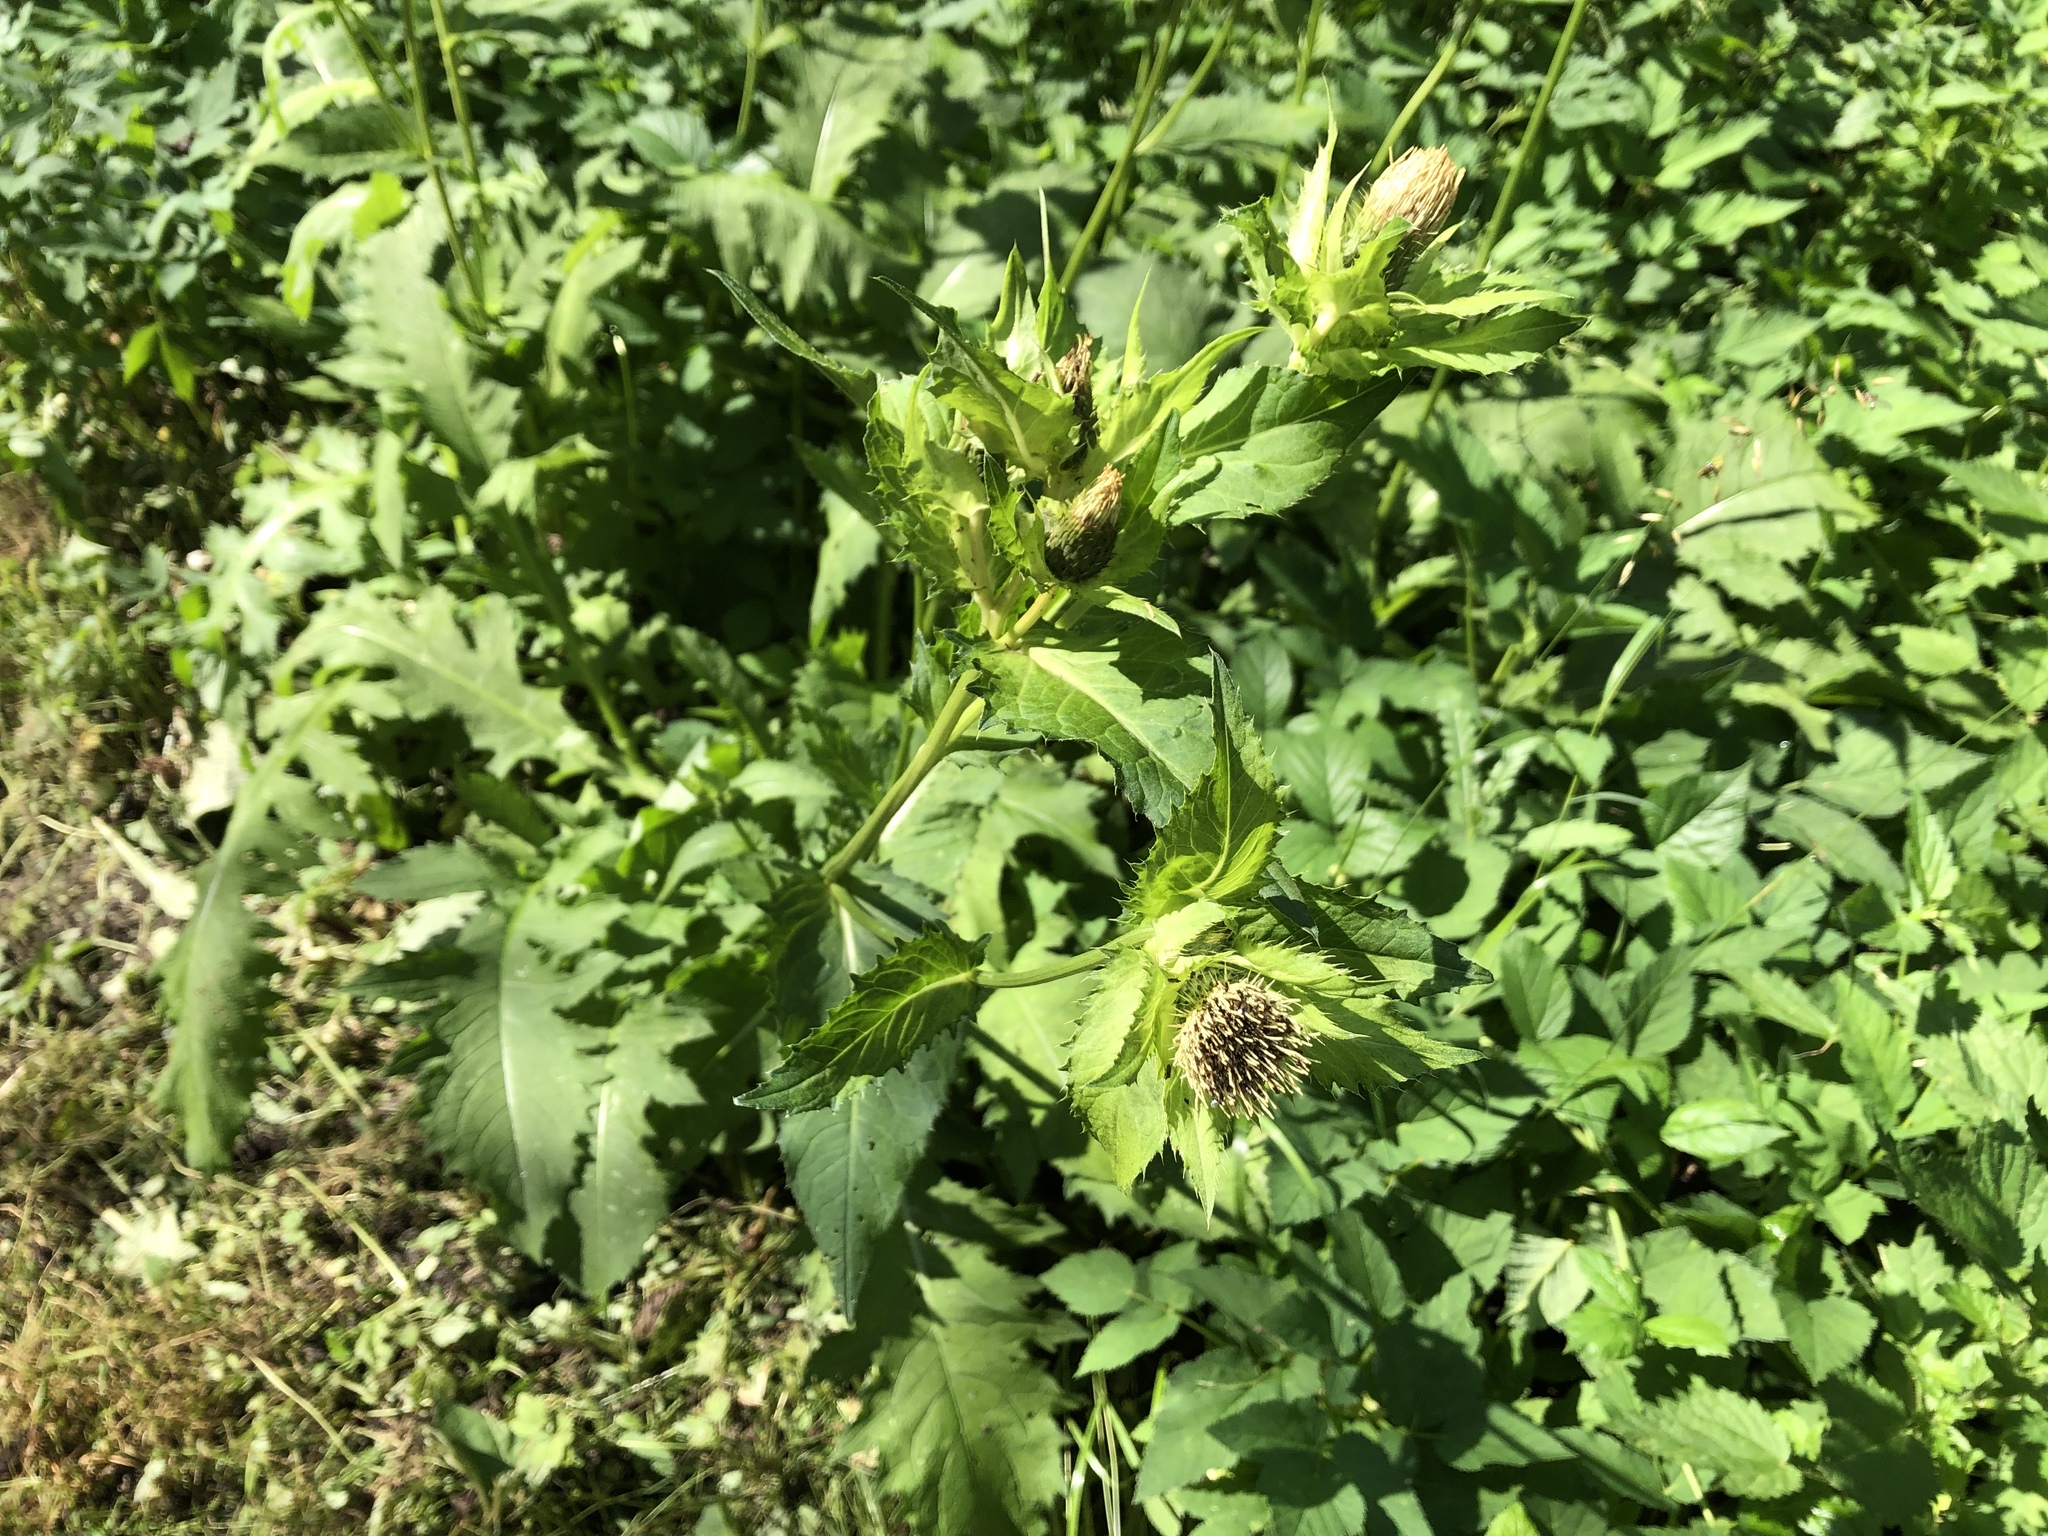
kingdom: Plantae
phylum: Tracheophyta
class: Magnoliopsida
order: Asterales
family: Asteraceae
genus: Cirsium
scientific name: Cirsium oleraceum
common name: Cabbage thistle
